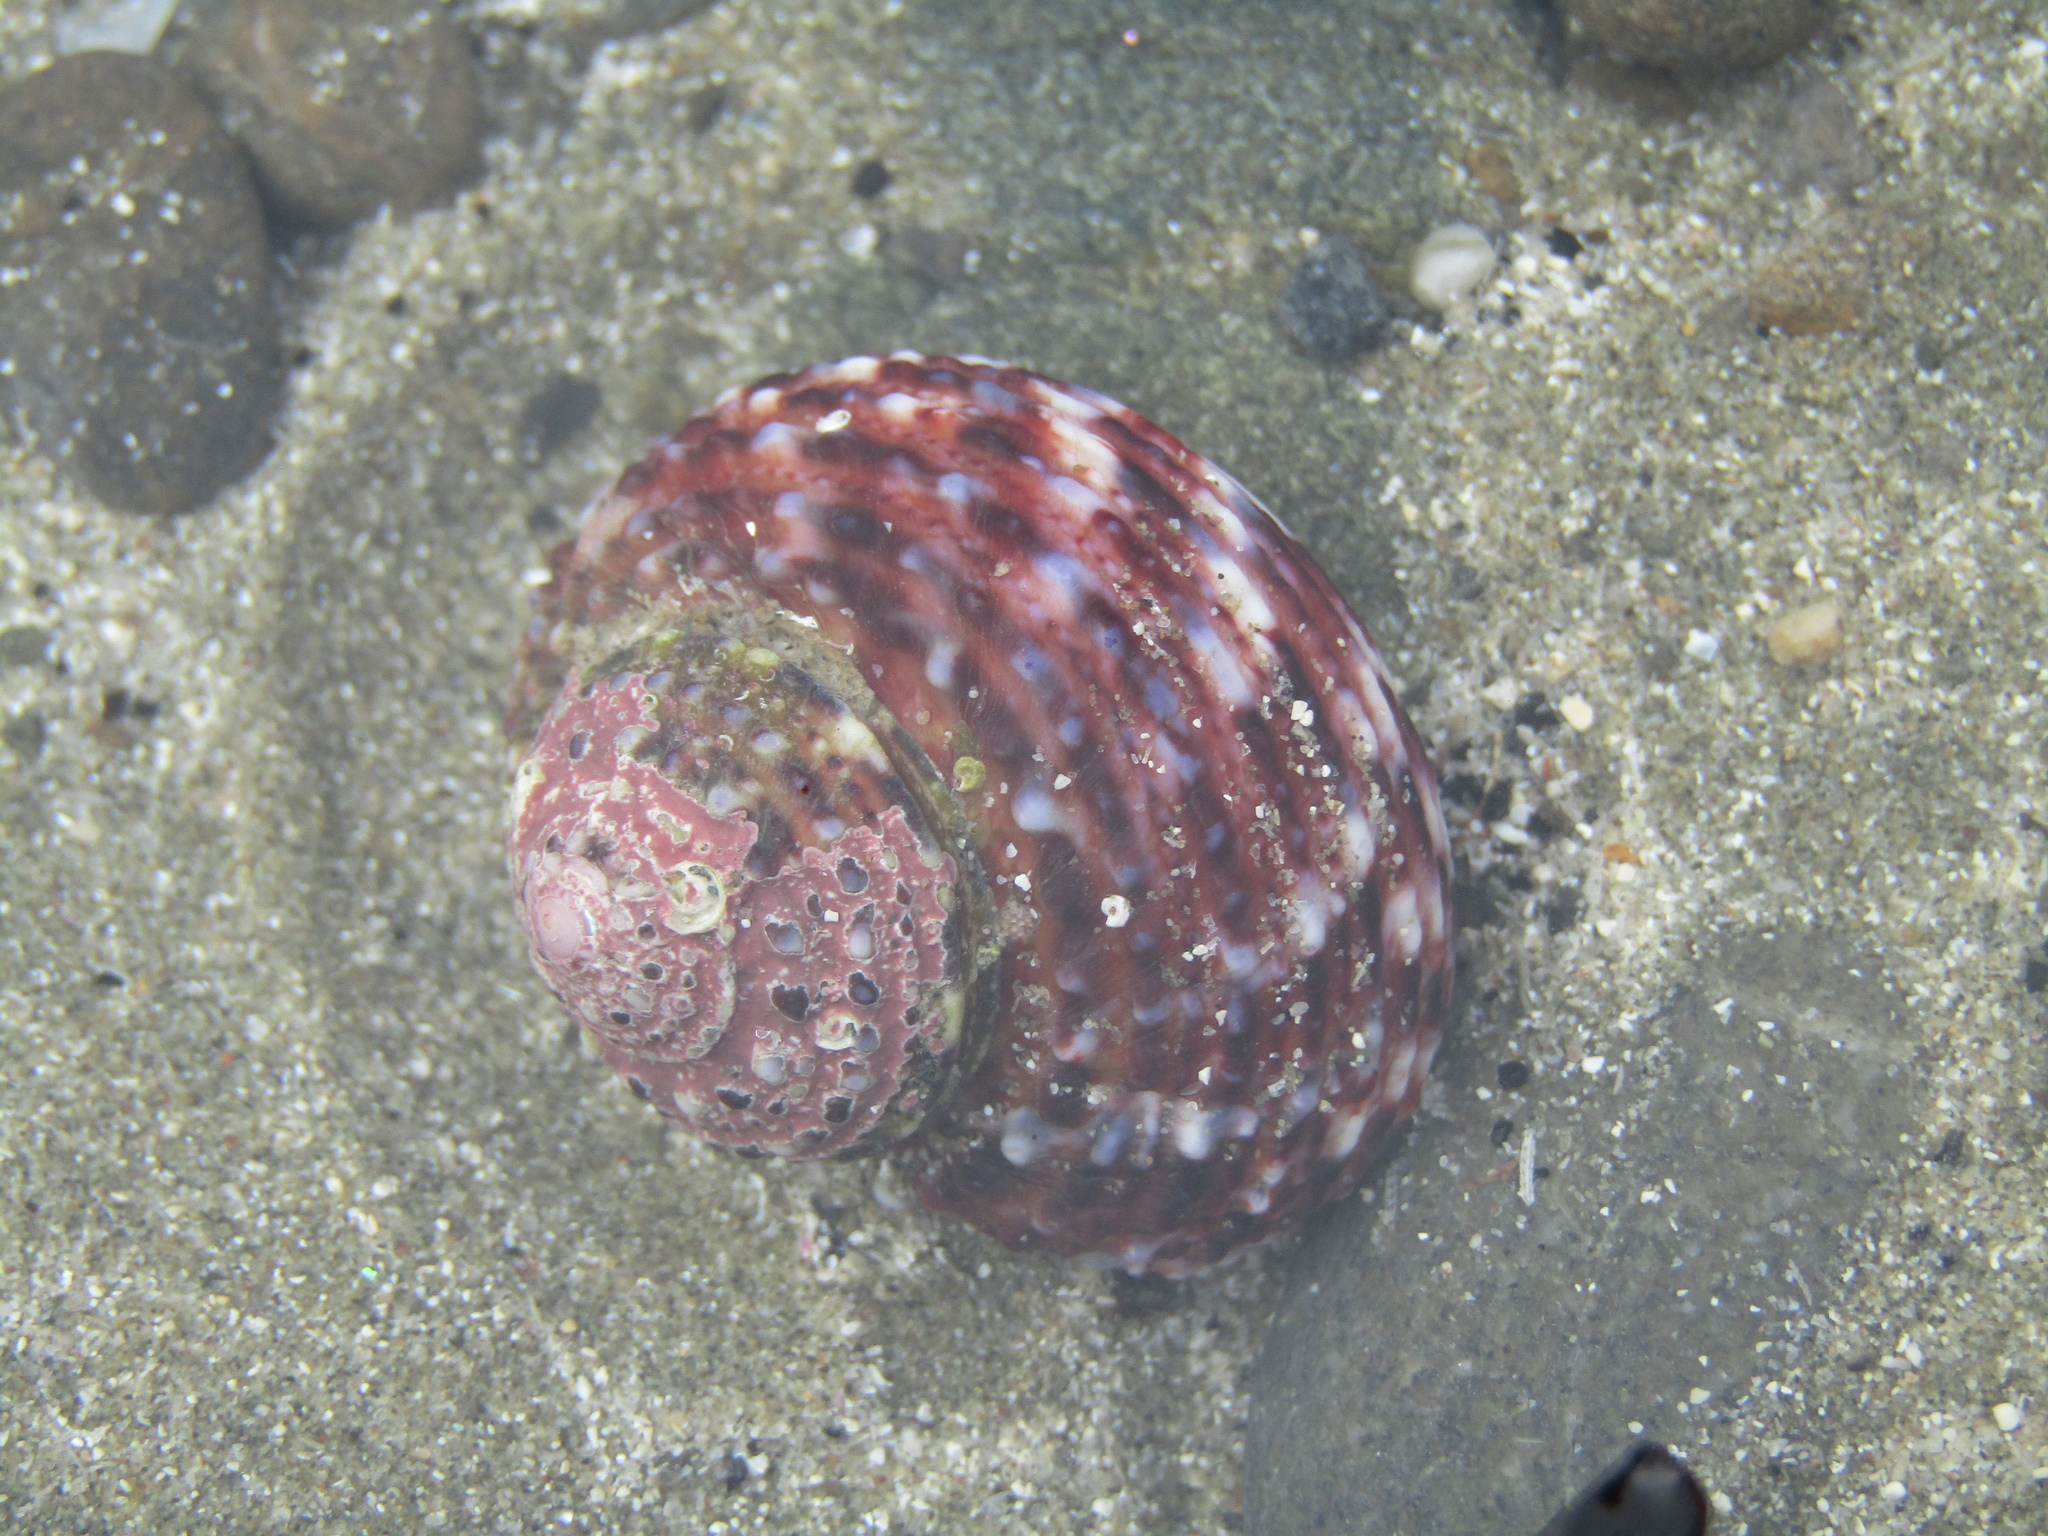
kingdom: Animalia
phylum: Mollusca
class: Gastropoda
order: Trochida
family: Turbinidae
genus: Modelia
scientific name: Modelia granosa
